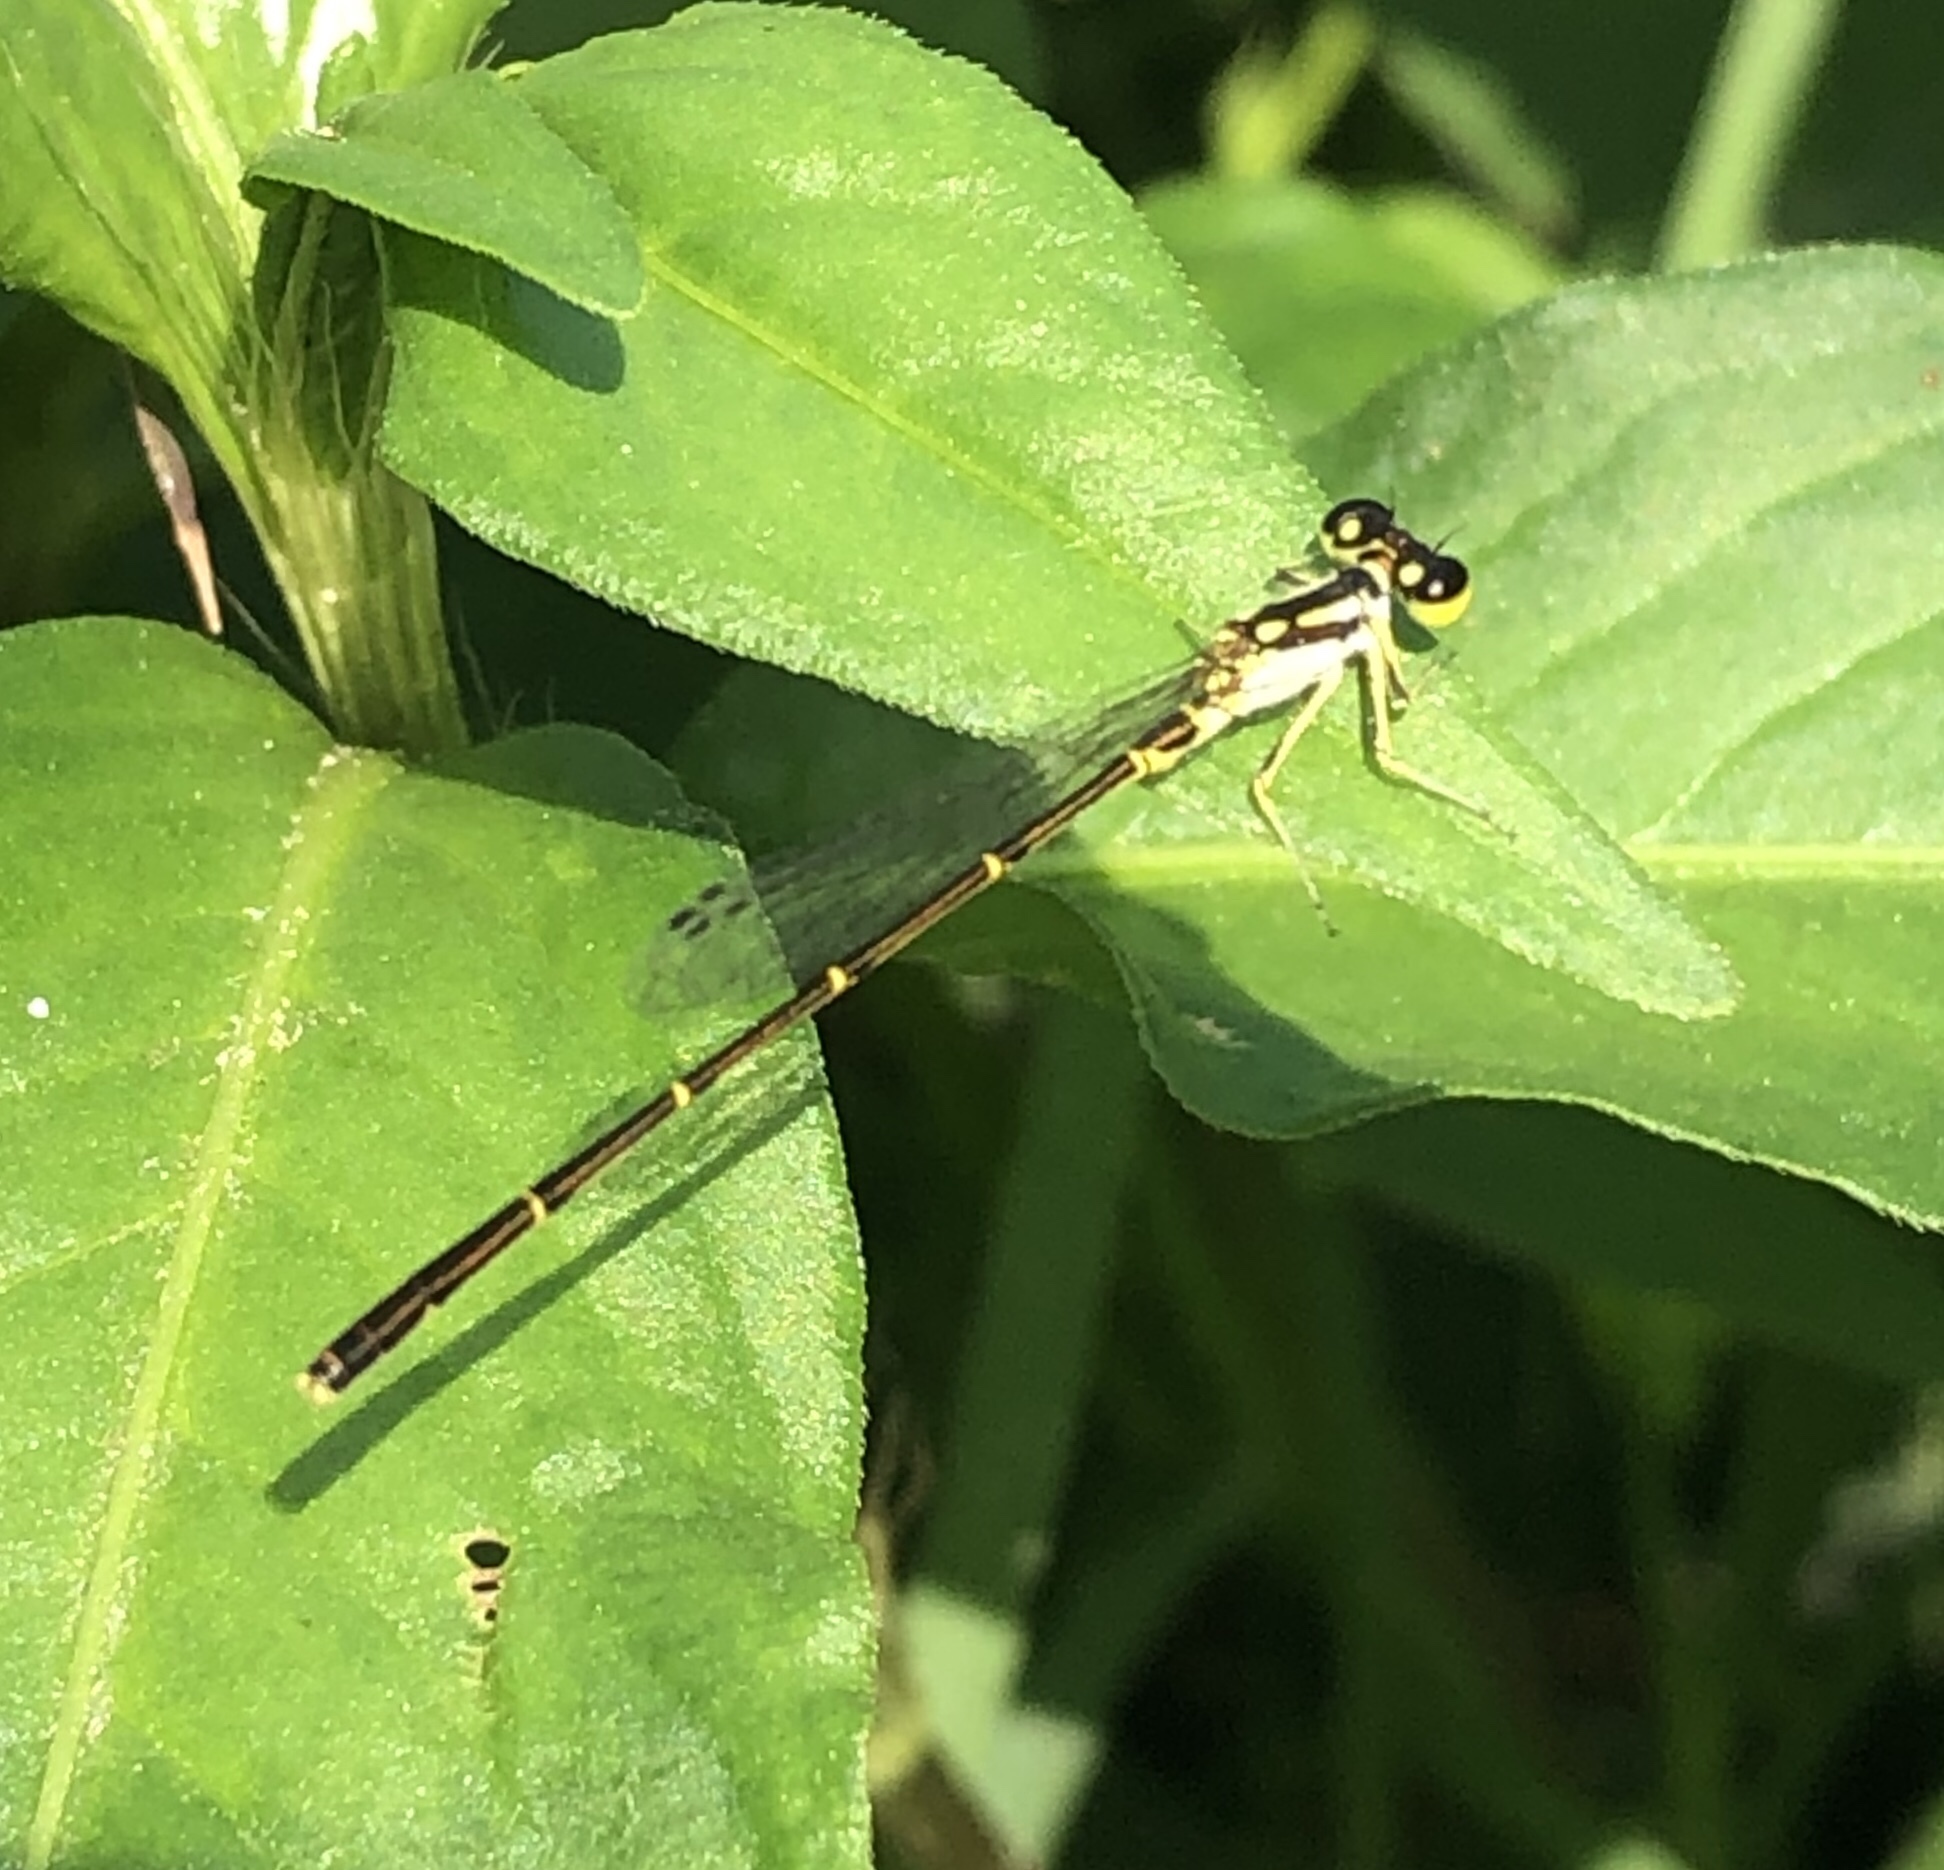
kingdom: Animalia
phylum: Arthropoda
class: Insecta
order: Odonata
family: Coenagrionidae
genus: Ischnura
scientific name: Ischnura posita
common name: Fragile forktail
